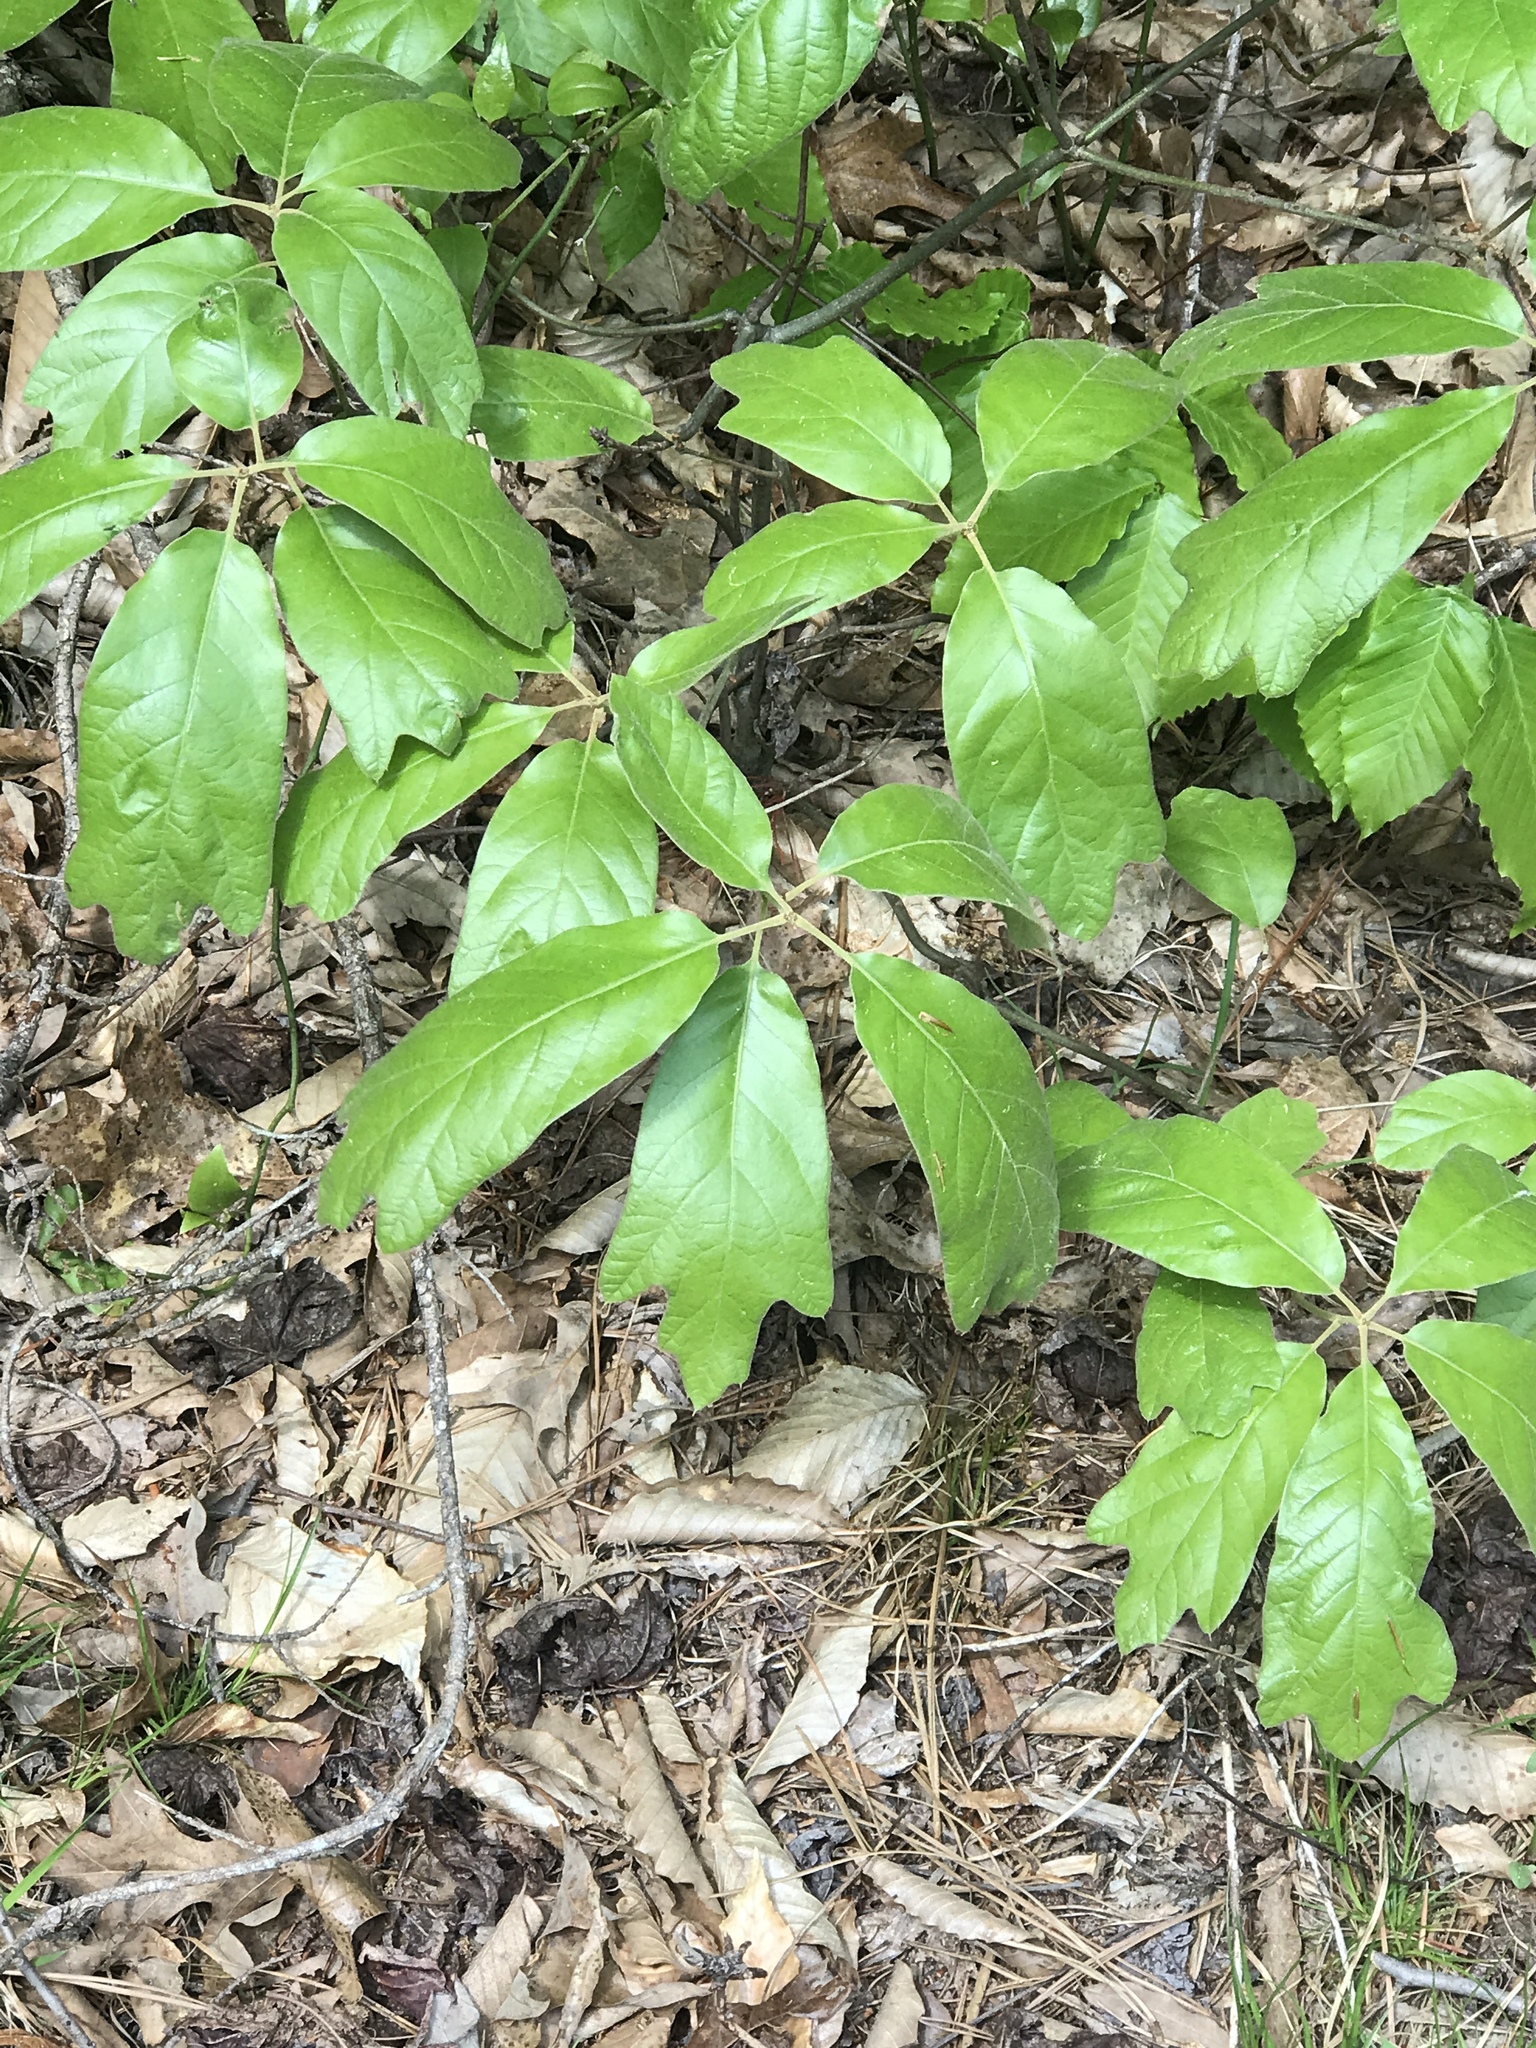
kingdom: Plantae
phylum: Tracheophyta
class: Magnoliopsida
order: Fagales
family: Fagaceae
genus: Quercus
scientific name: Quercus falcata
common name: Southern red oak
